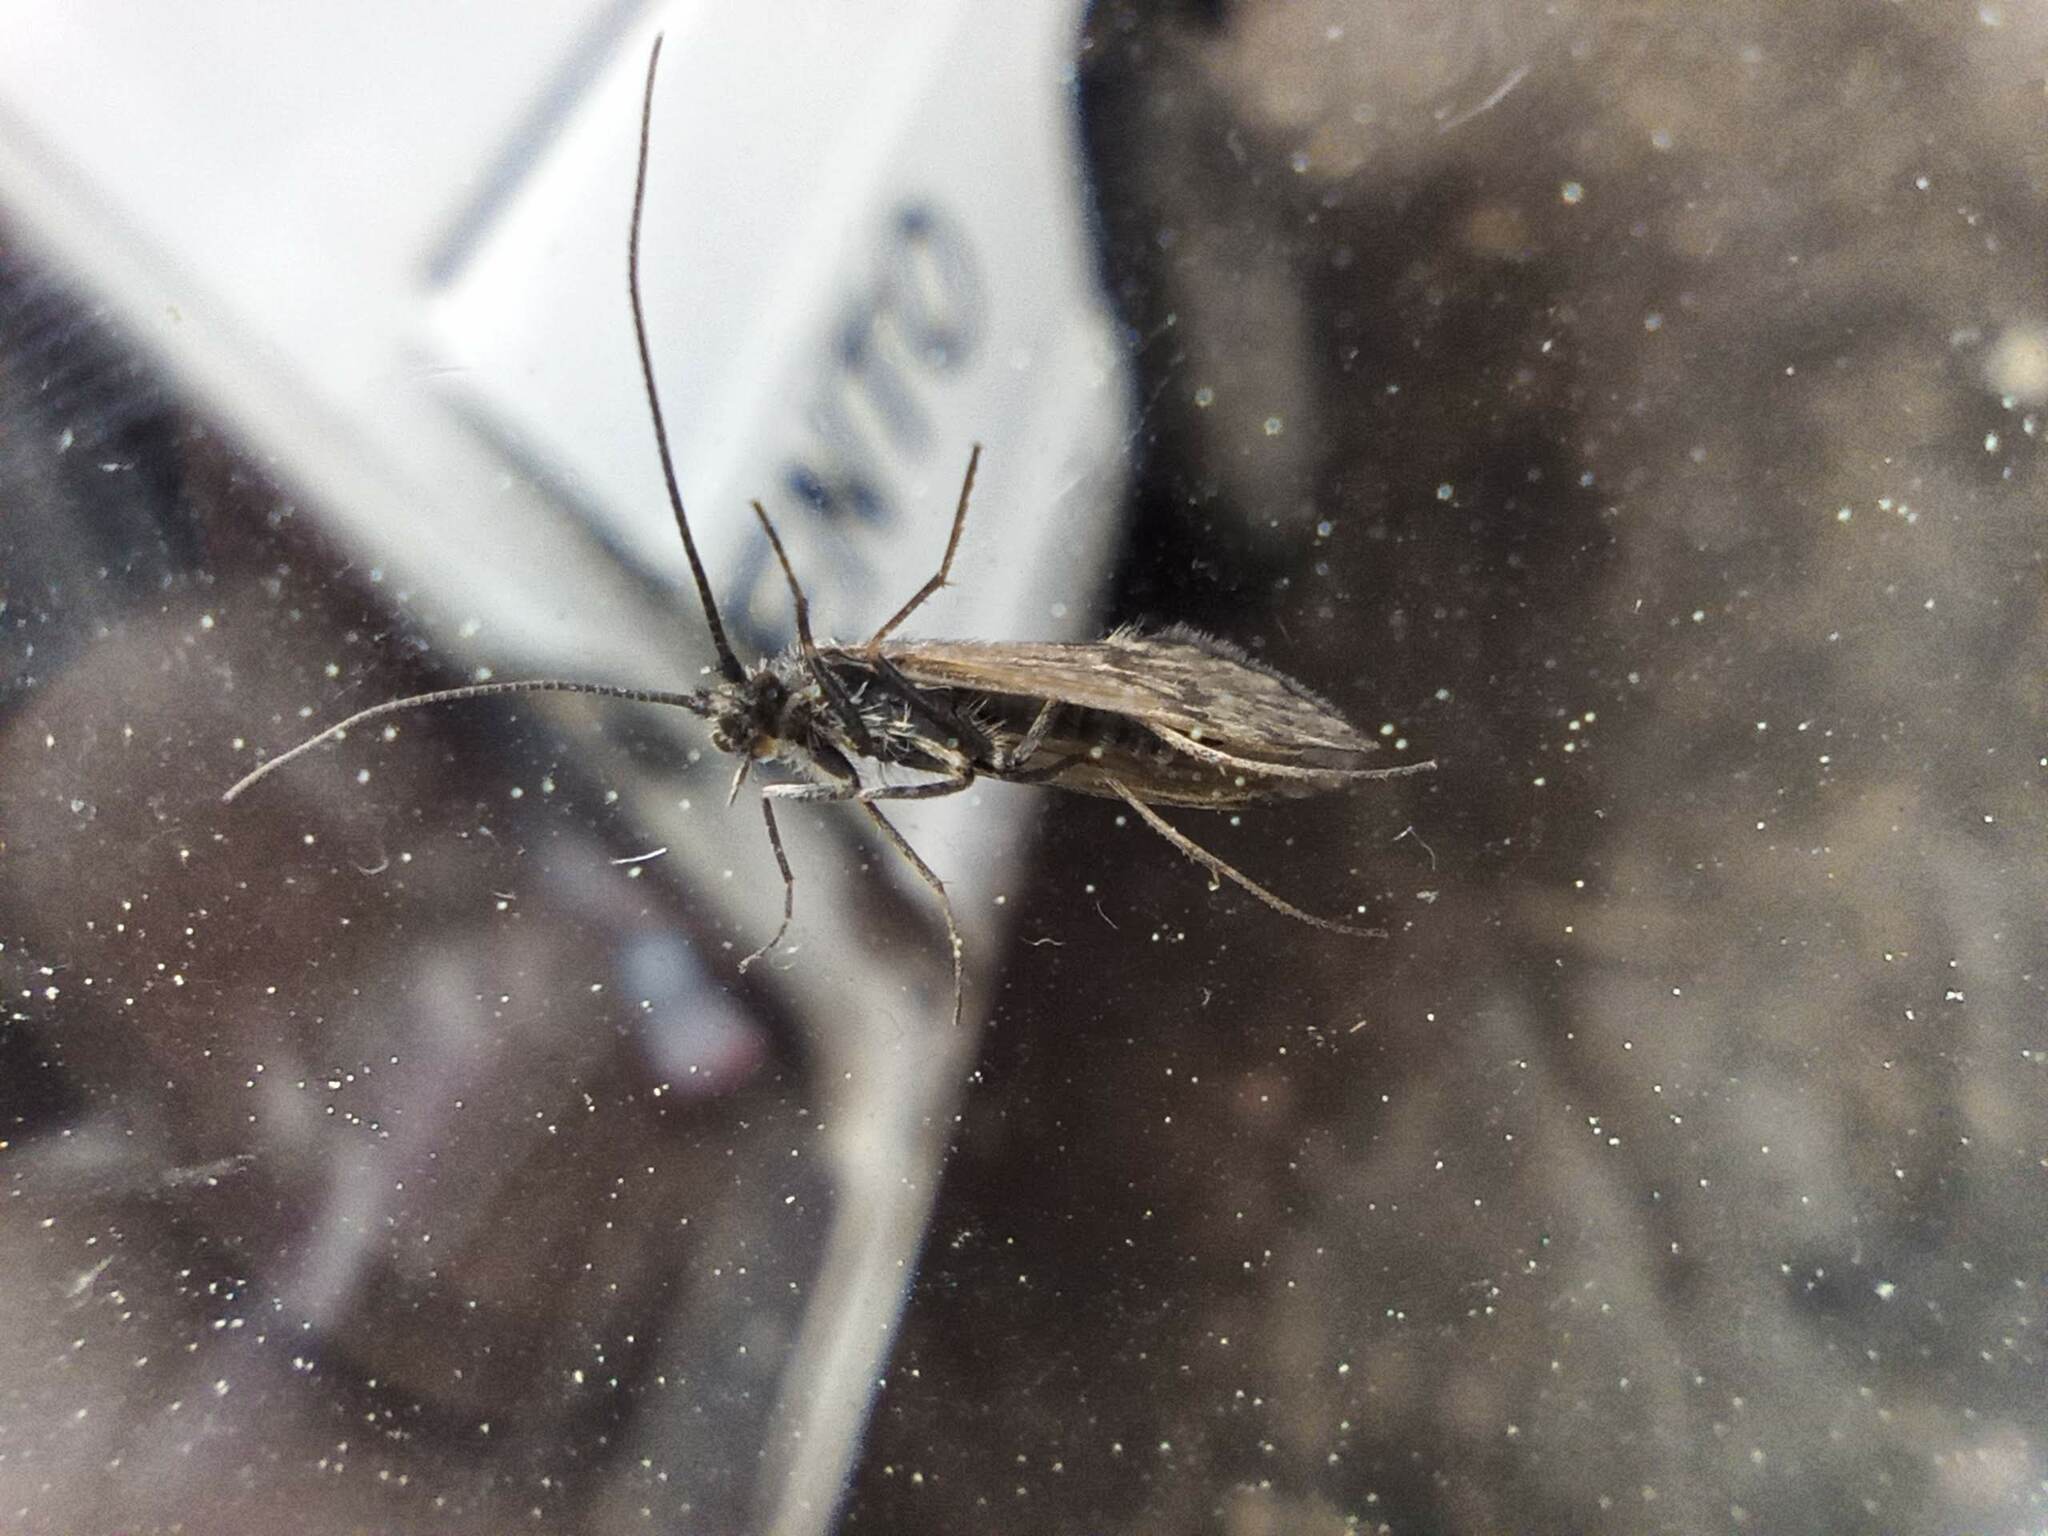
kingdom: Animalia
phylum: Arthropoda
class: Insecta
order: Trichoptera
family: Brachycentridae
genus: Brachycentrus
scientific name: Brachycentrus subnubilis
